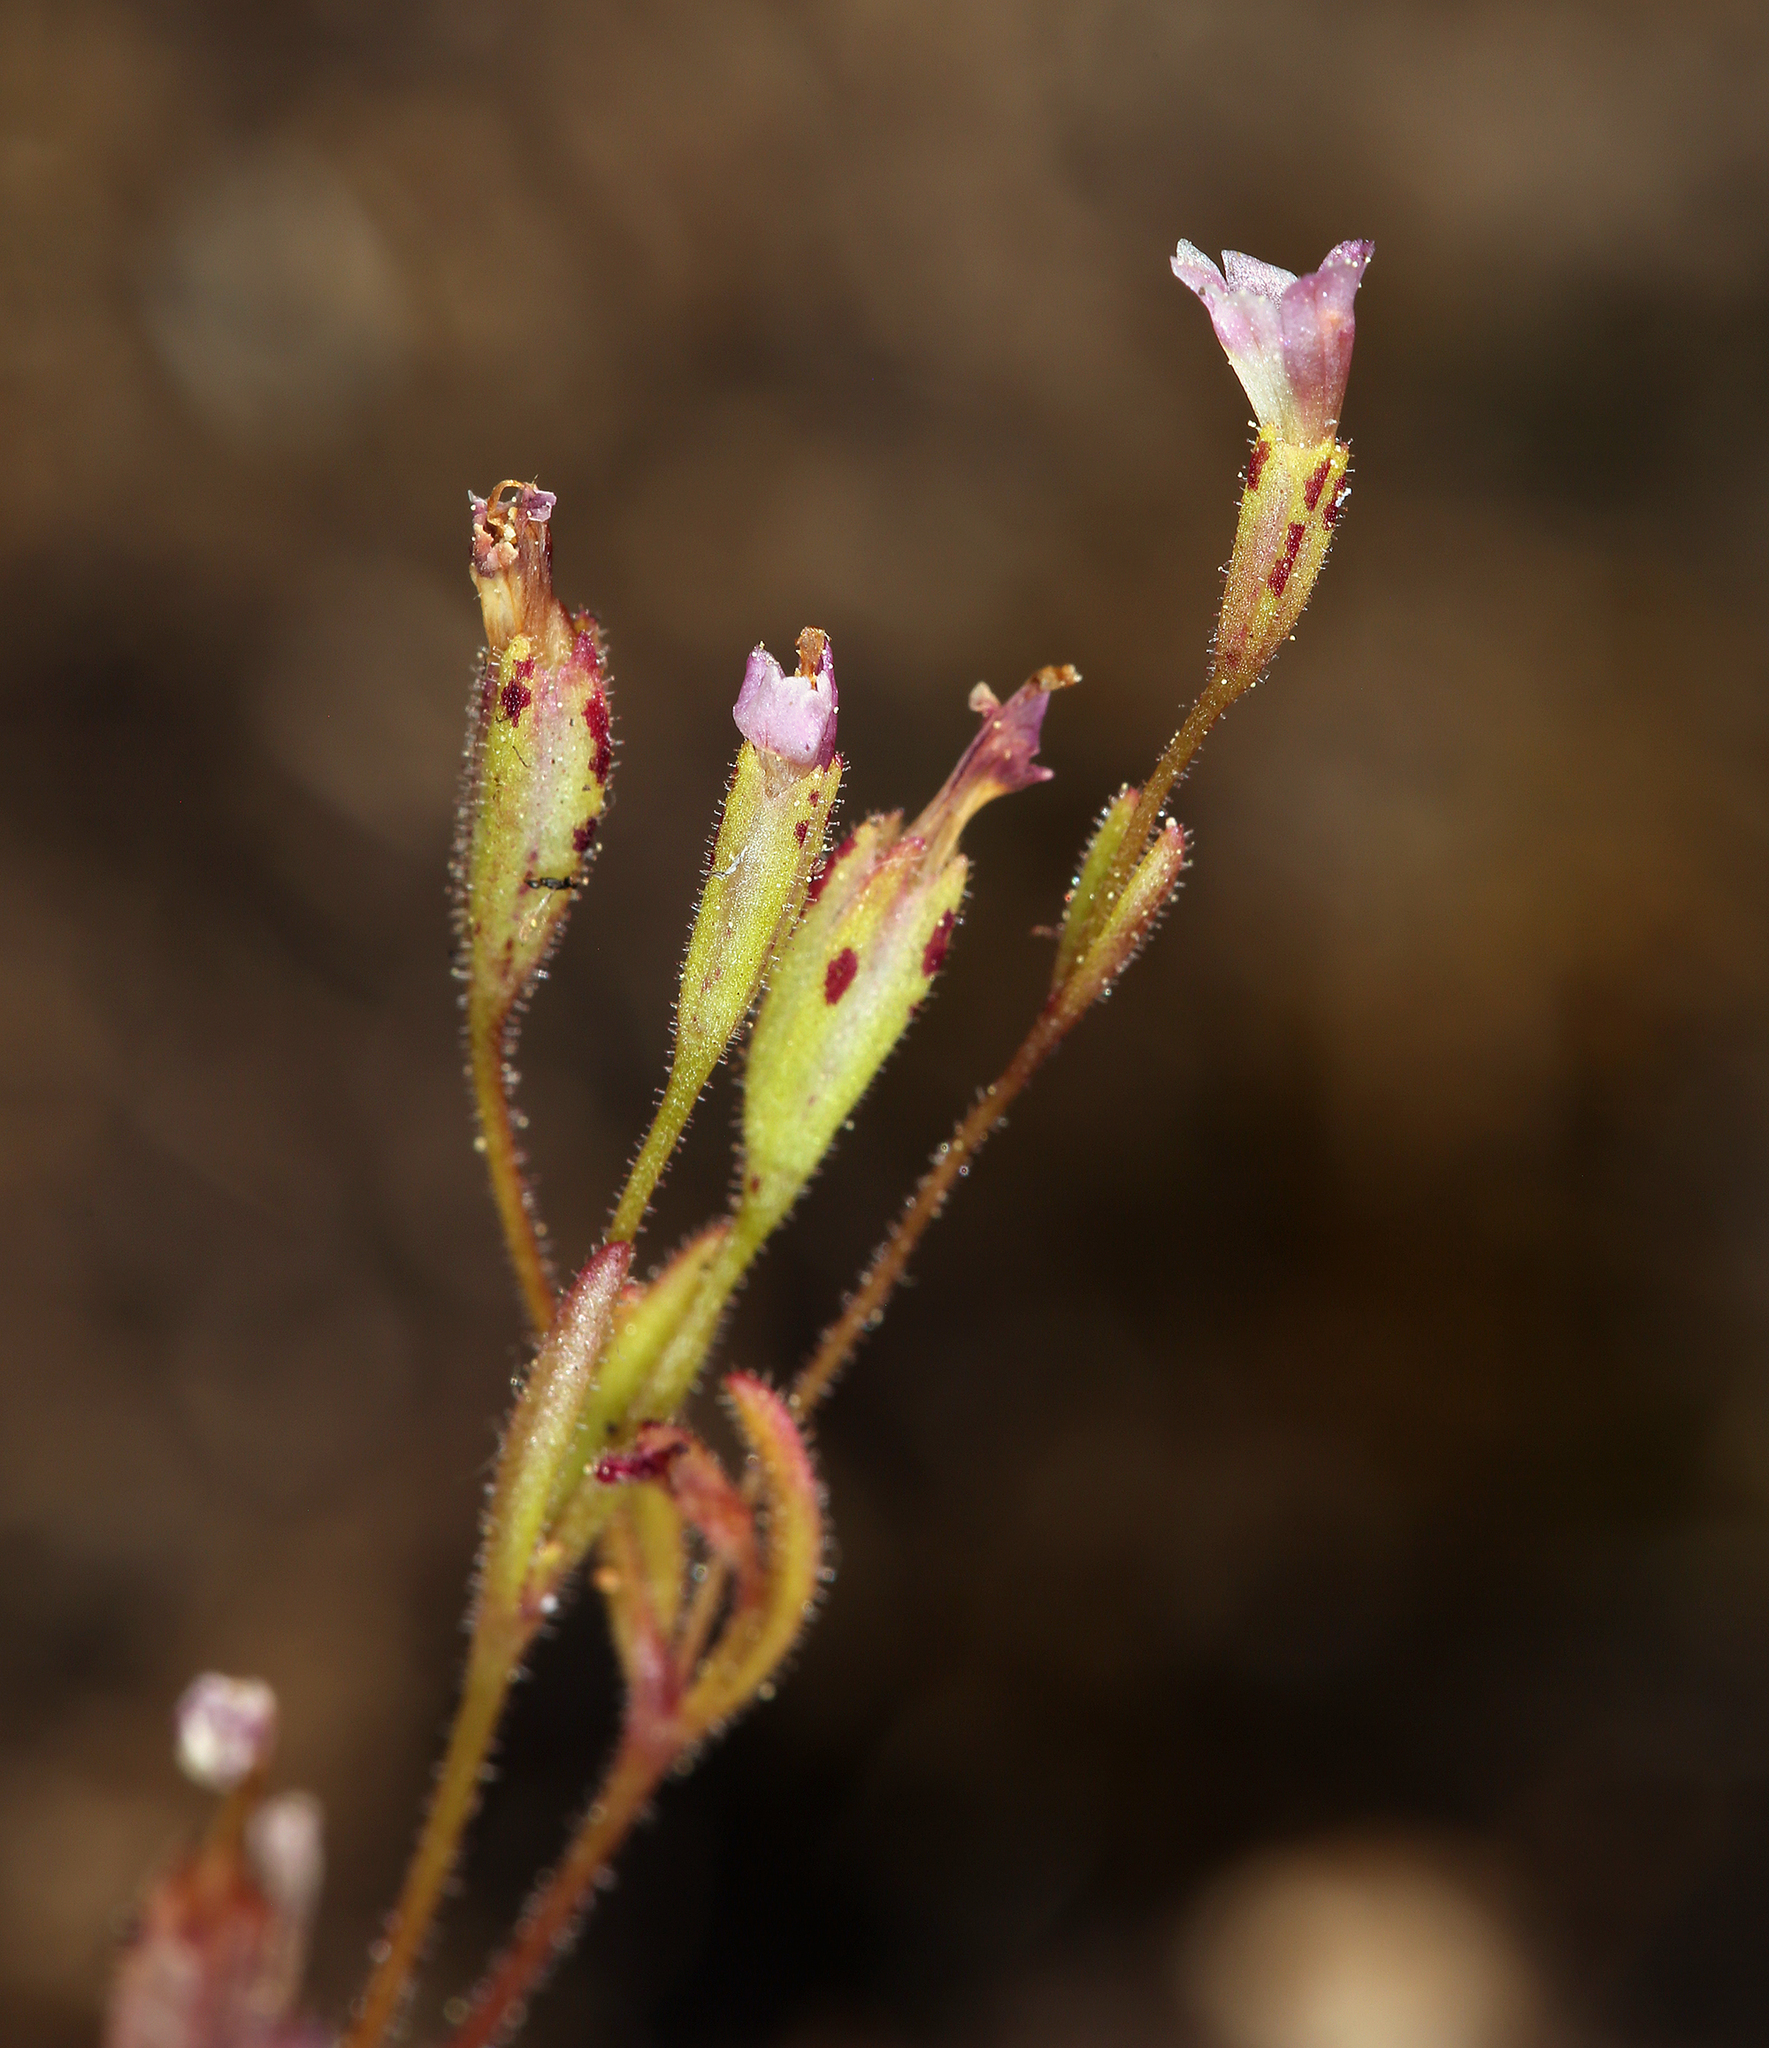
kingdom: Plantae
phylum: Tracheophyta
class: Magnoliopsida
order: Lamiales
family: Phrymaceae
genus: Erythranthe
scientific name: Erythranthe breweri
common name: Brewer's monkeyflower
